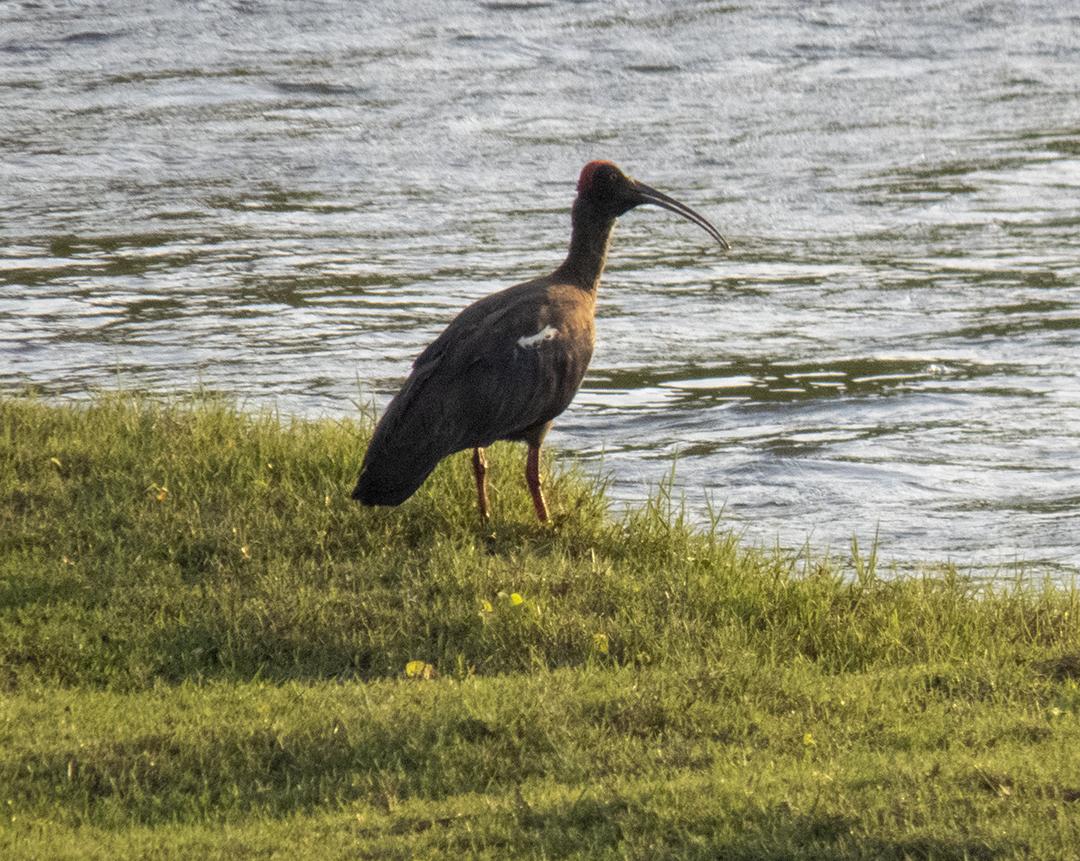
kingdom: Animalia
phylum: Chordata
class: Aves
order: Pelecaniformes
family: Threskiornithidae
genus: Pseudibis
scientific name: Pseudibis papillosa
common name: Red-naped ibis
